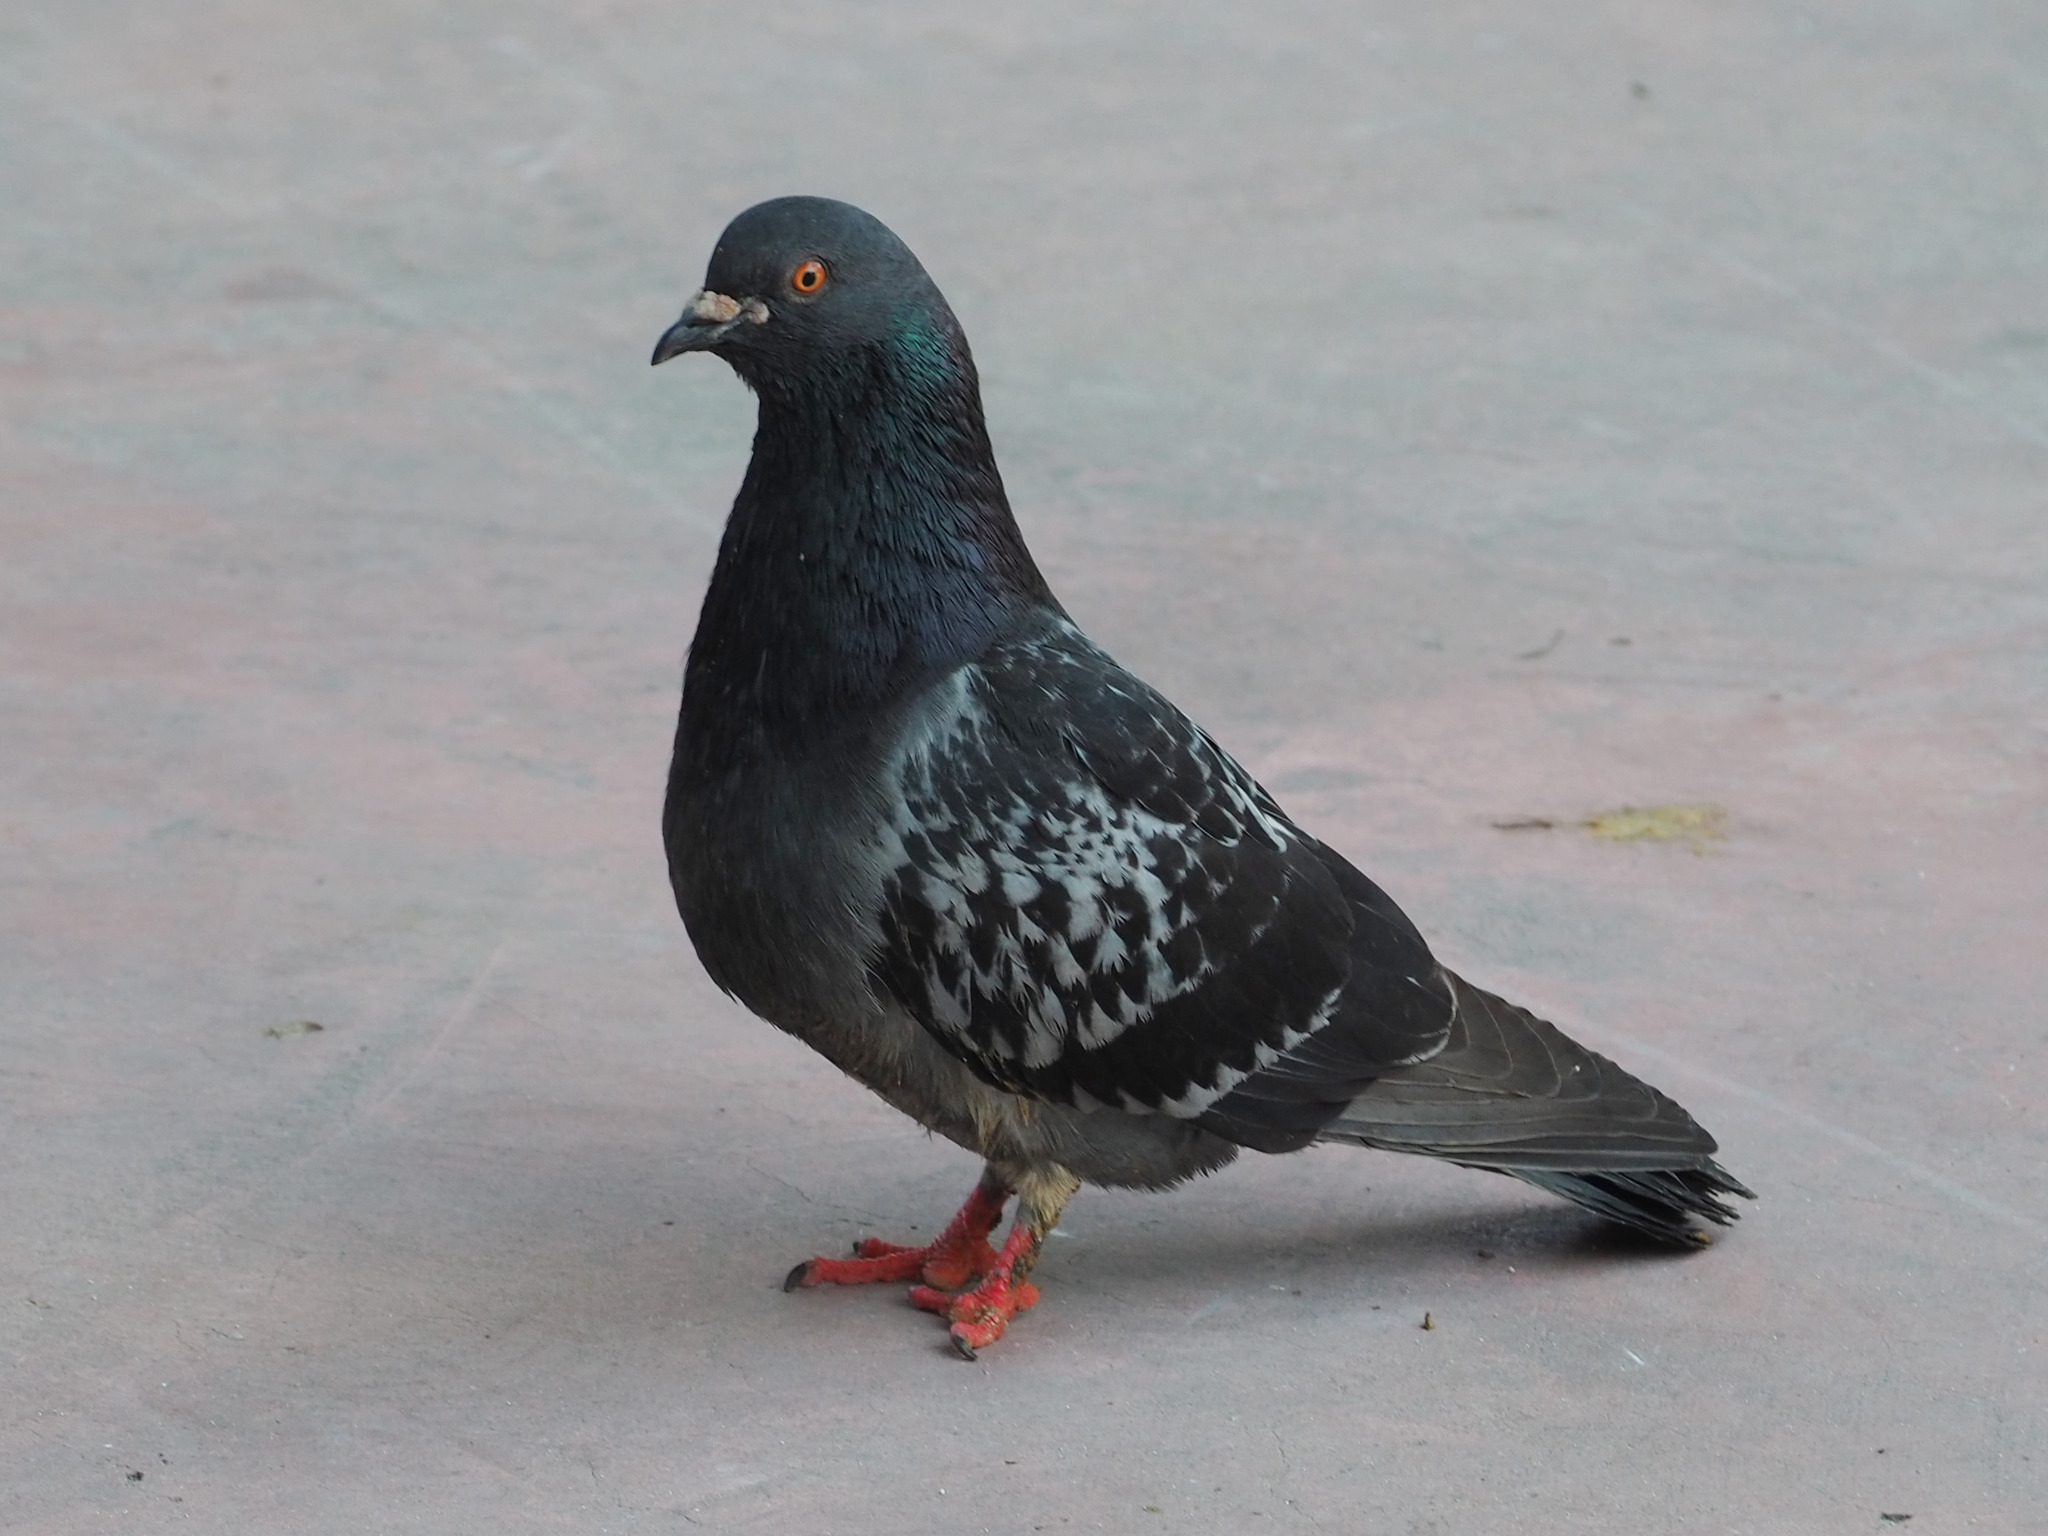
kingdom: Animalia
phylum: Chordata
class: Aves
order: Columbiformes
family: Columbidae
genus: Columba
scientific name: Columba livia
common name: Rock pigeon
